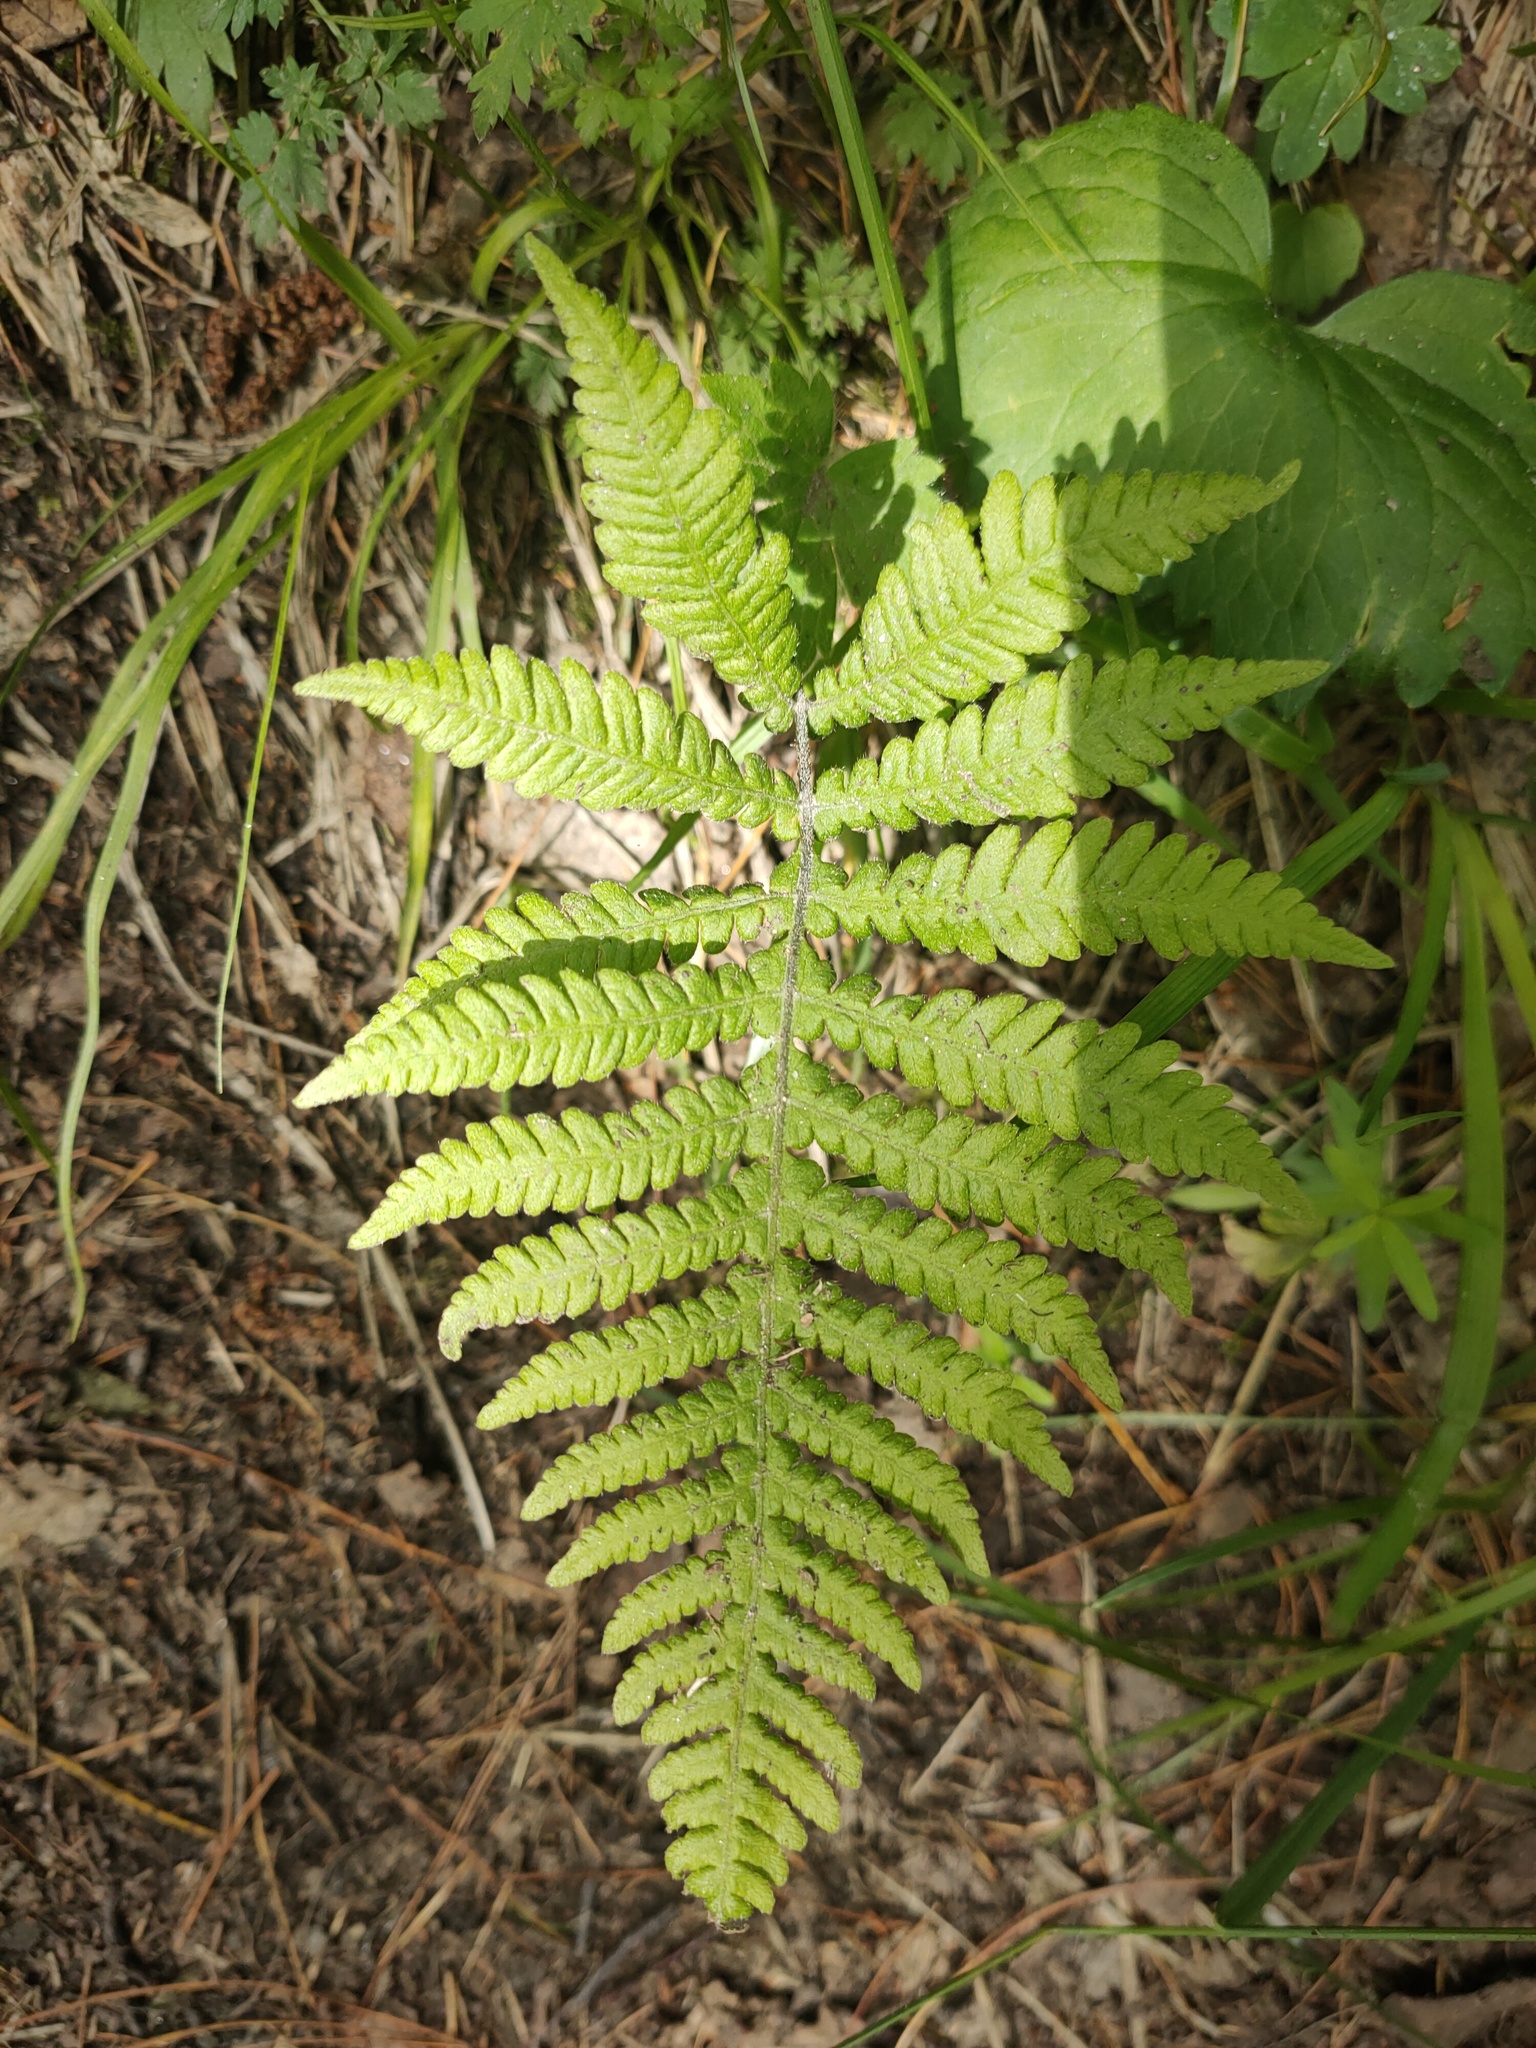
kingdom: Plantae
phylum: Tracheophyta
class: Polypodiopsida
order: Polypodiales
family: Thelypteridaceae
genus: Phegopteris
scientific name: Phegopteris connectilis
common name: Beech fern
